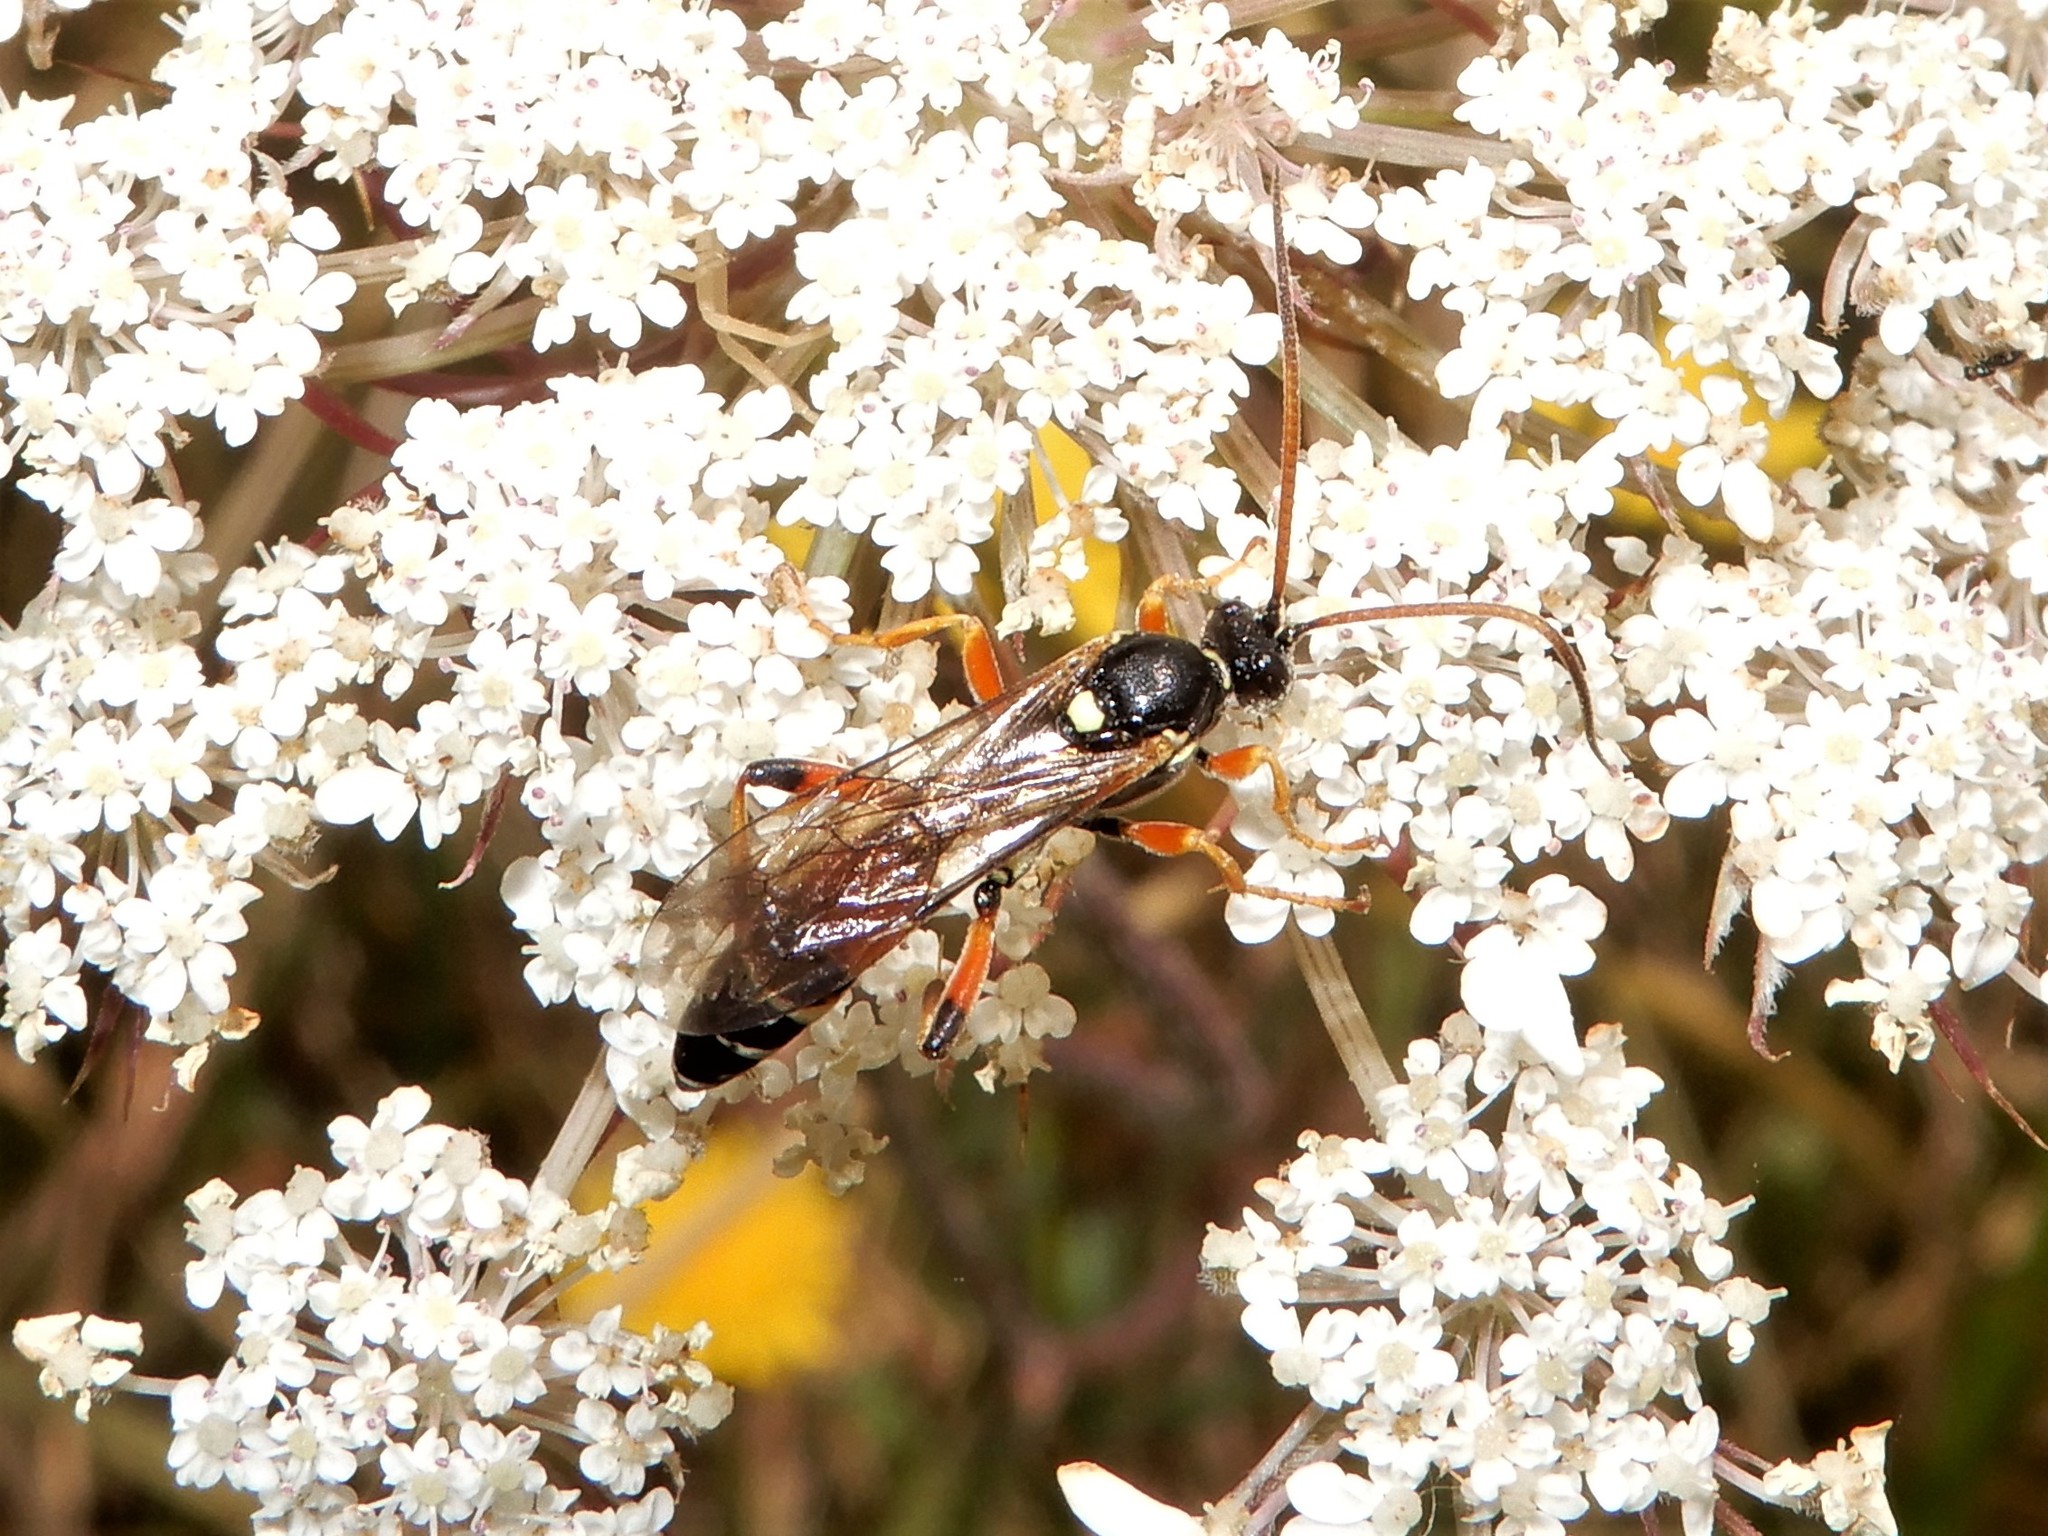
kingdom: Animalia
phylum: Arthropoda
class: Insecta
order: Hymenoptera
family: Ichneumonidae
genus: Ichneumon
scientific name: Ichneumon promissorius
